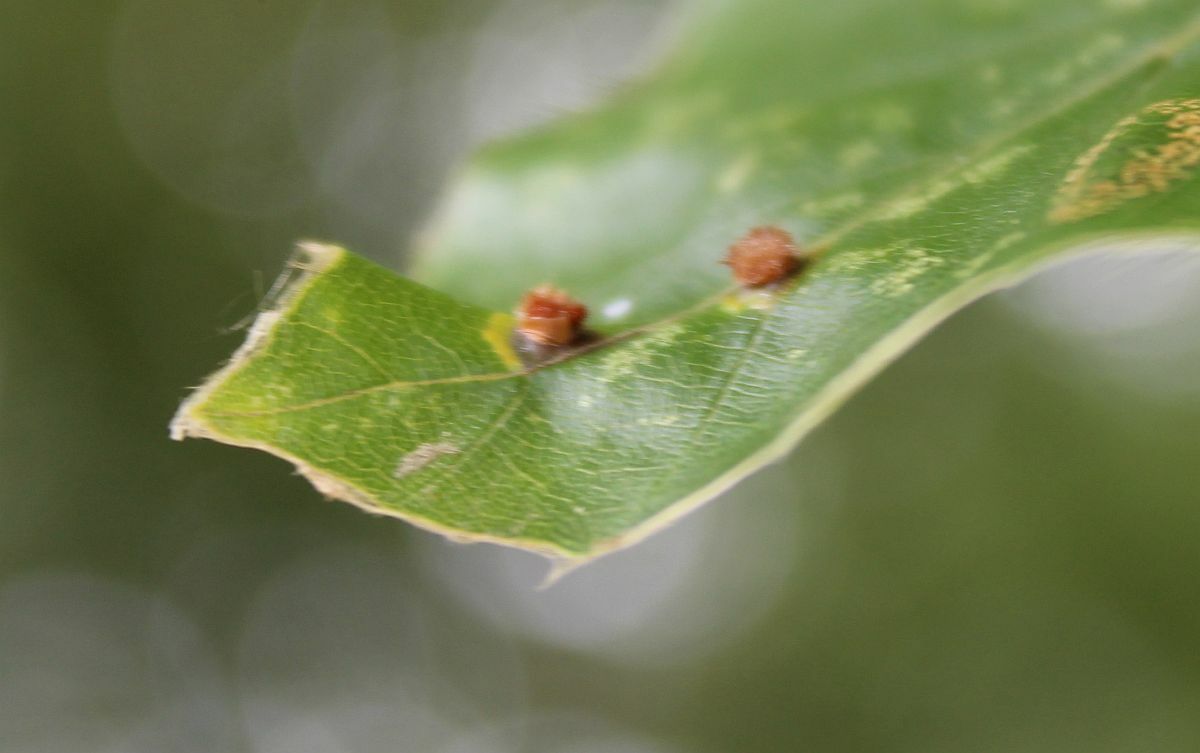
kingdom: Animalia
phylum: Arthropoda
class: Insecta
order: Diptera
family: Cecidomyiidae
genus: Hartigiola
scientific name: Hartigiola annulipes
